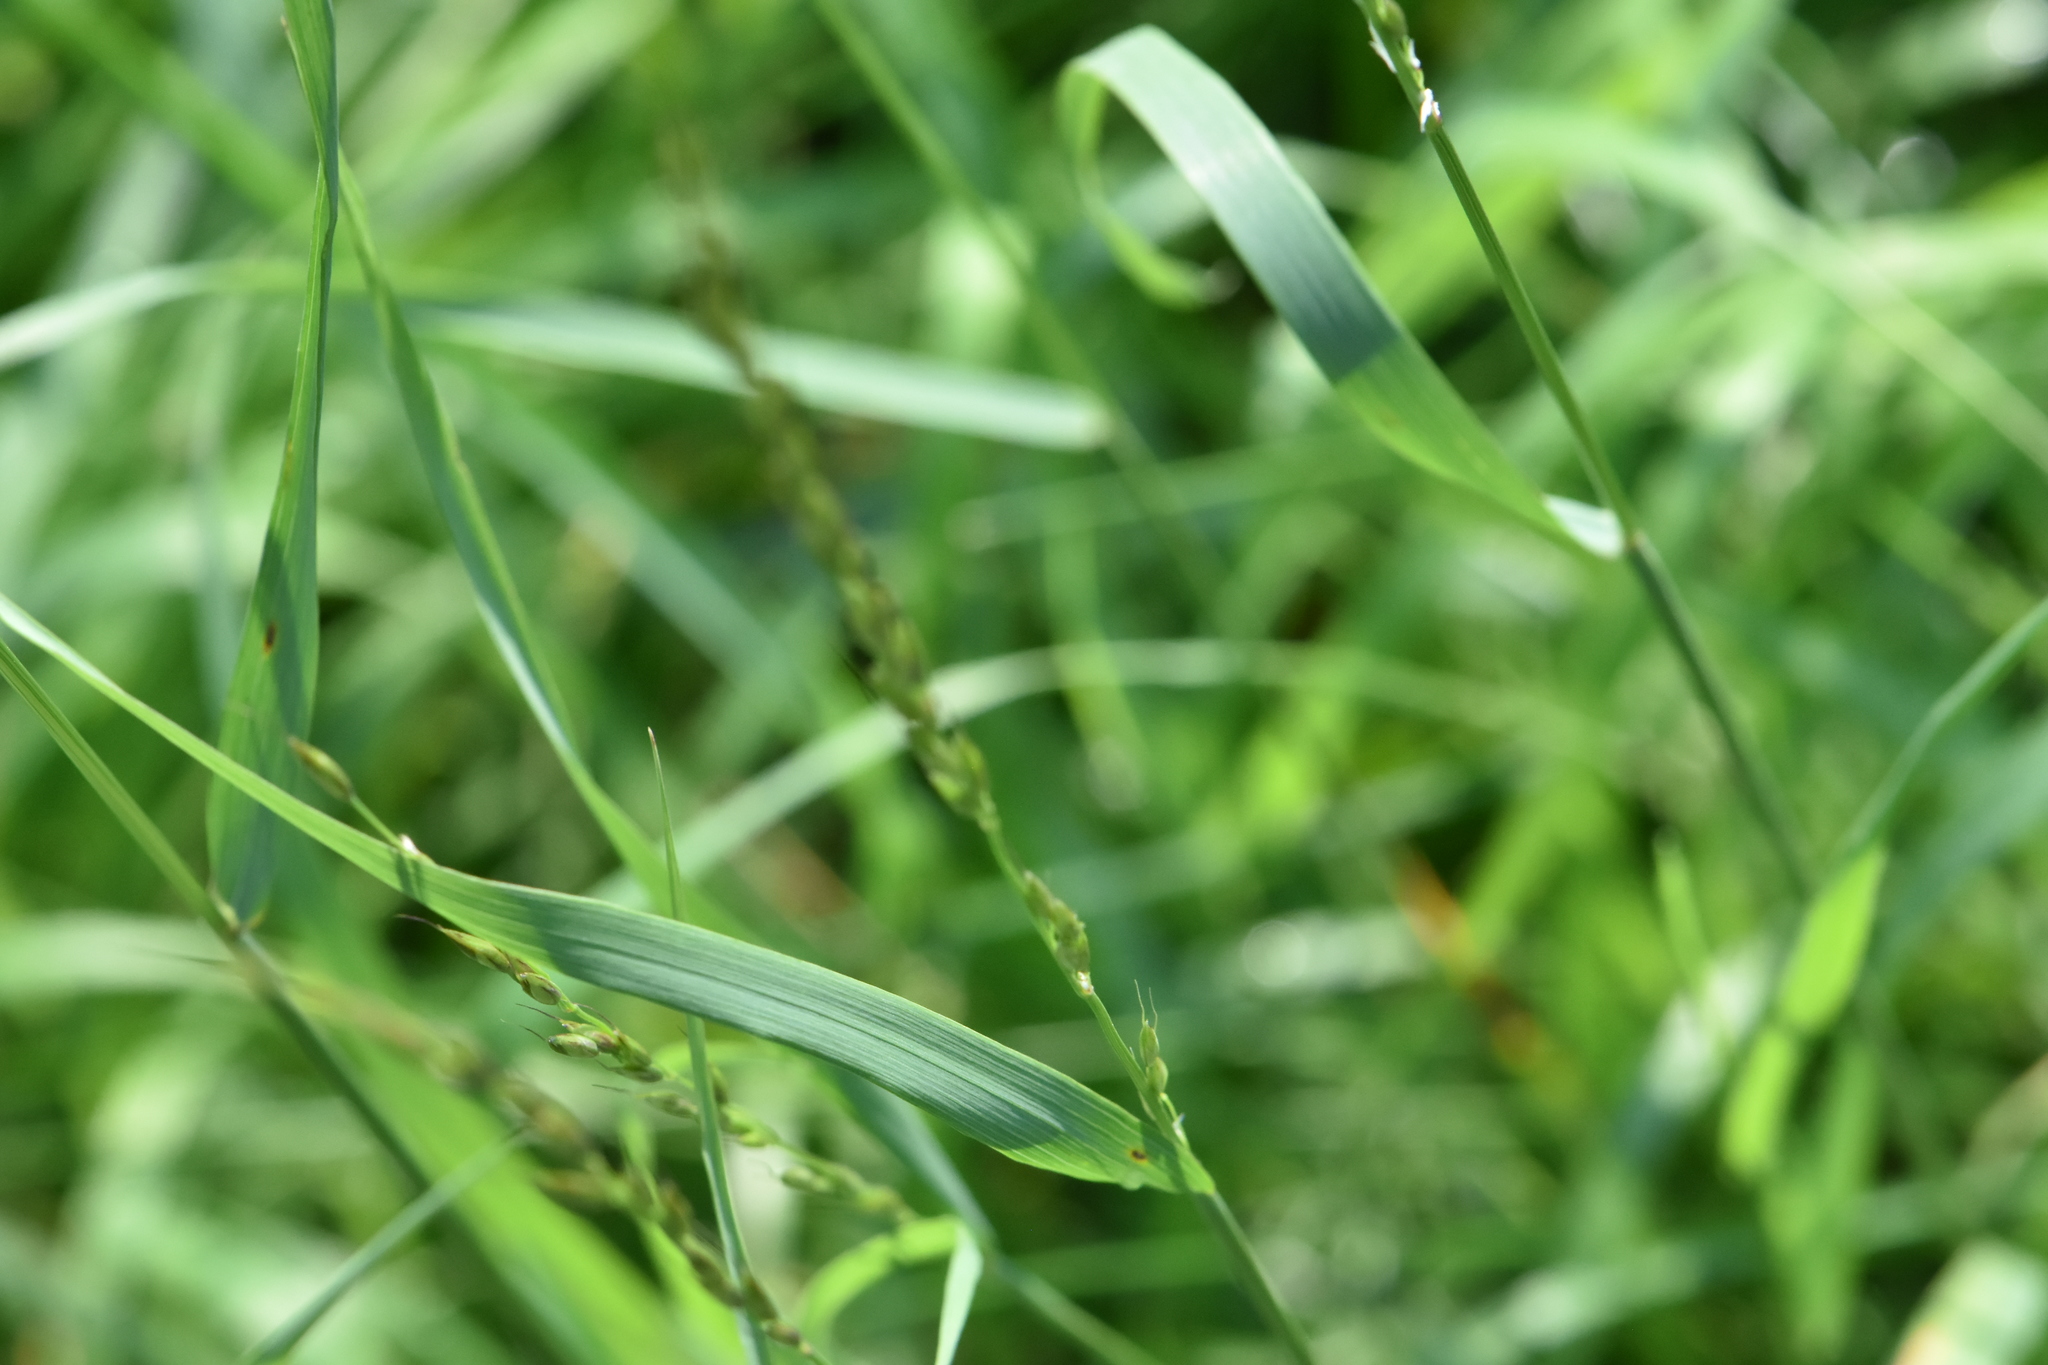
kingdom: Plantae
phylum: Tracheophyta
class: Liliopsida
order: Poales
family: Poaceae
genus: Arrhenatherum
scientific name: Arrhenatherum elatius
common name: Tall oatgrass
